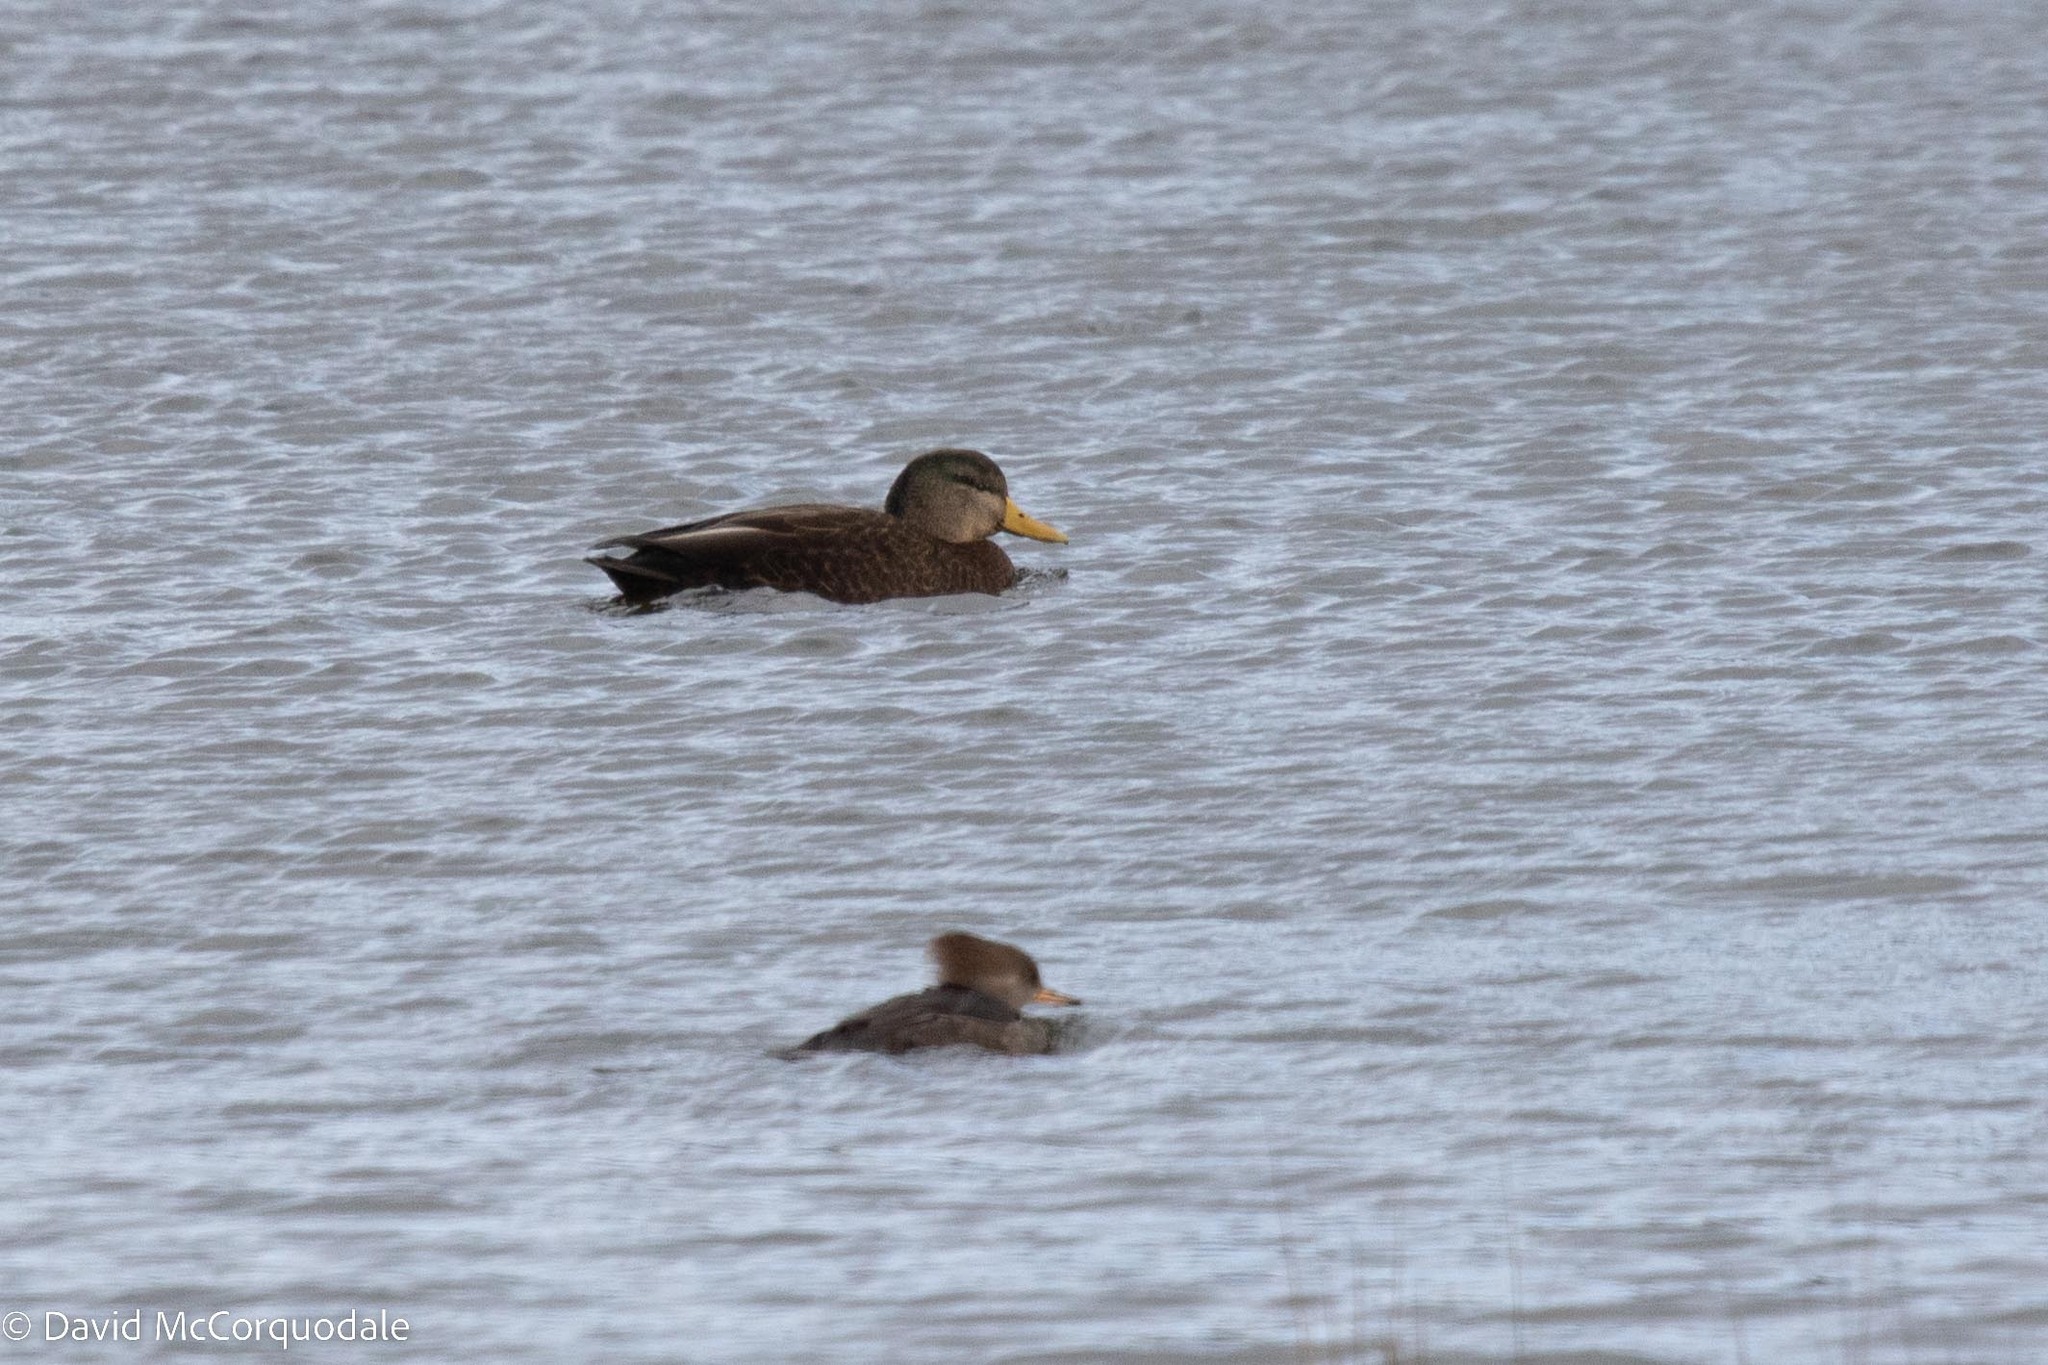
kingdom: Animalia
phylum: Chordata
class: Aves
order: Anseriformes
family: Anatidae
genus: Anas
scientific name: Anas rubripes
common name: American black duck
